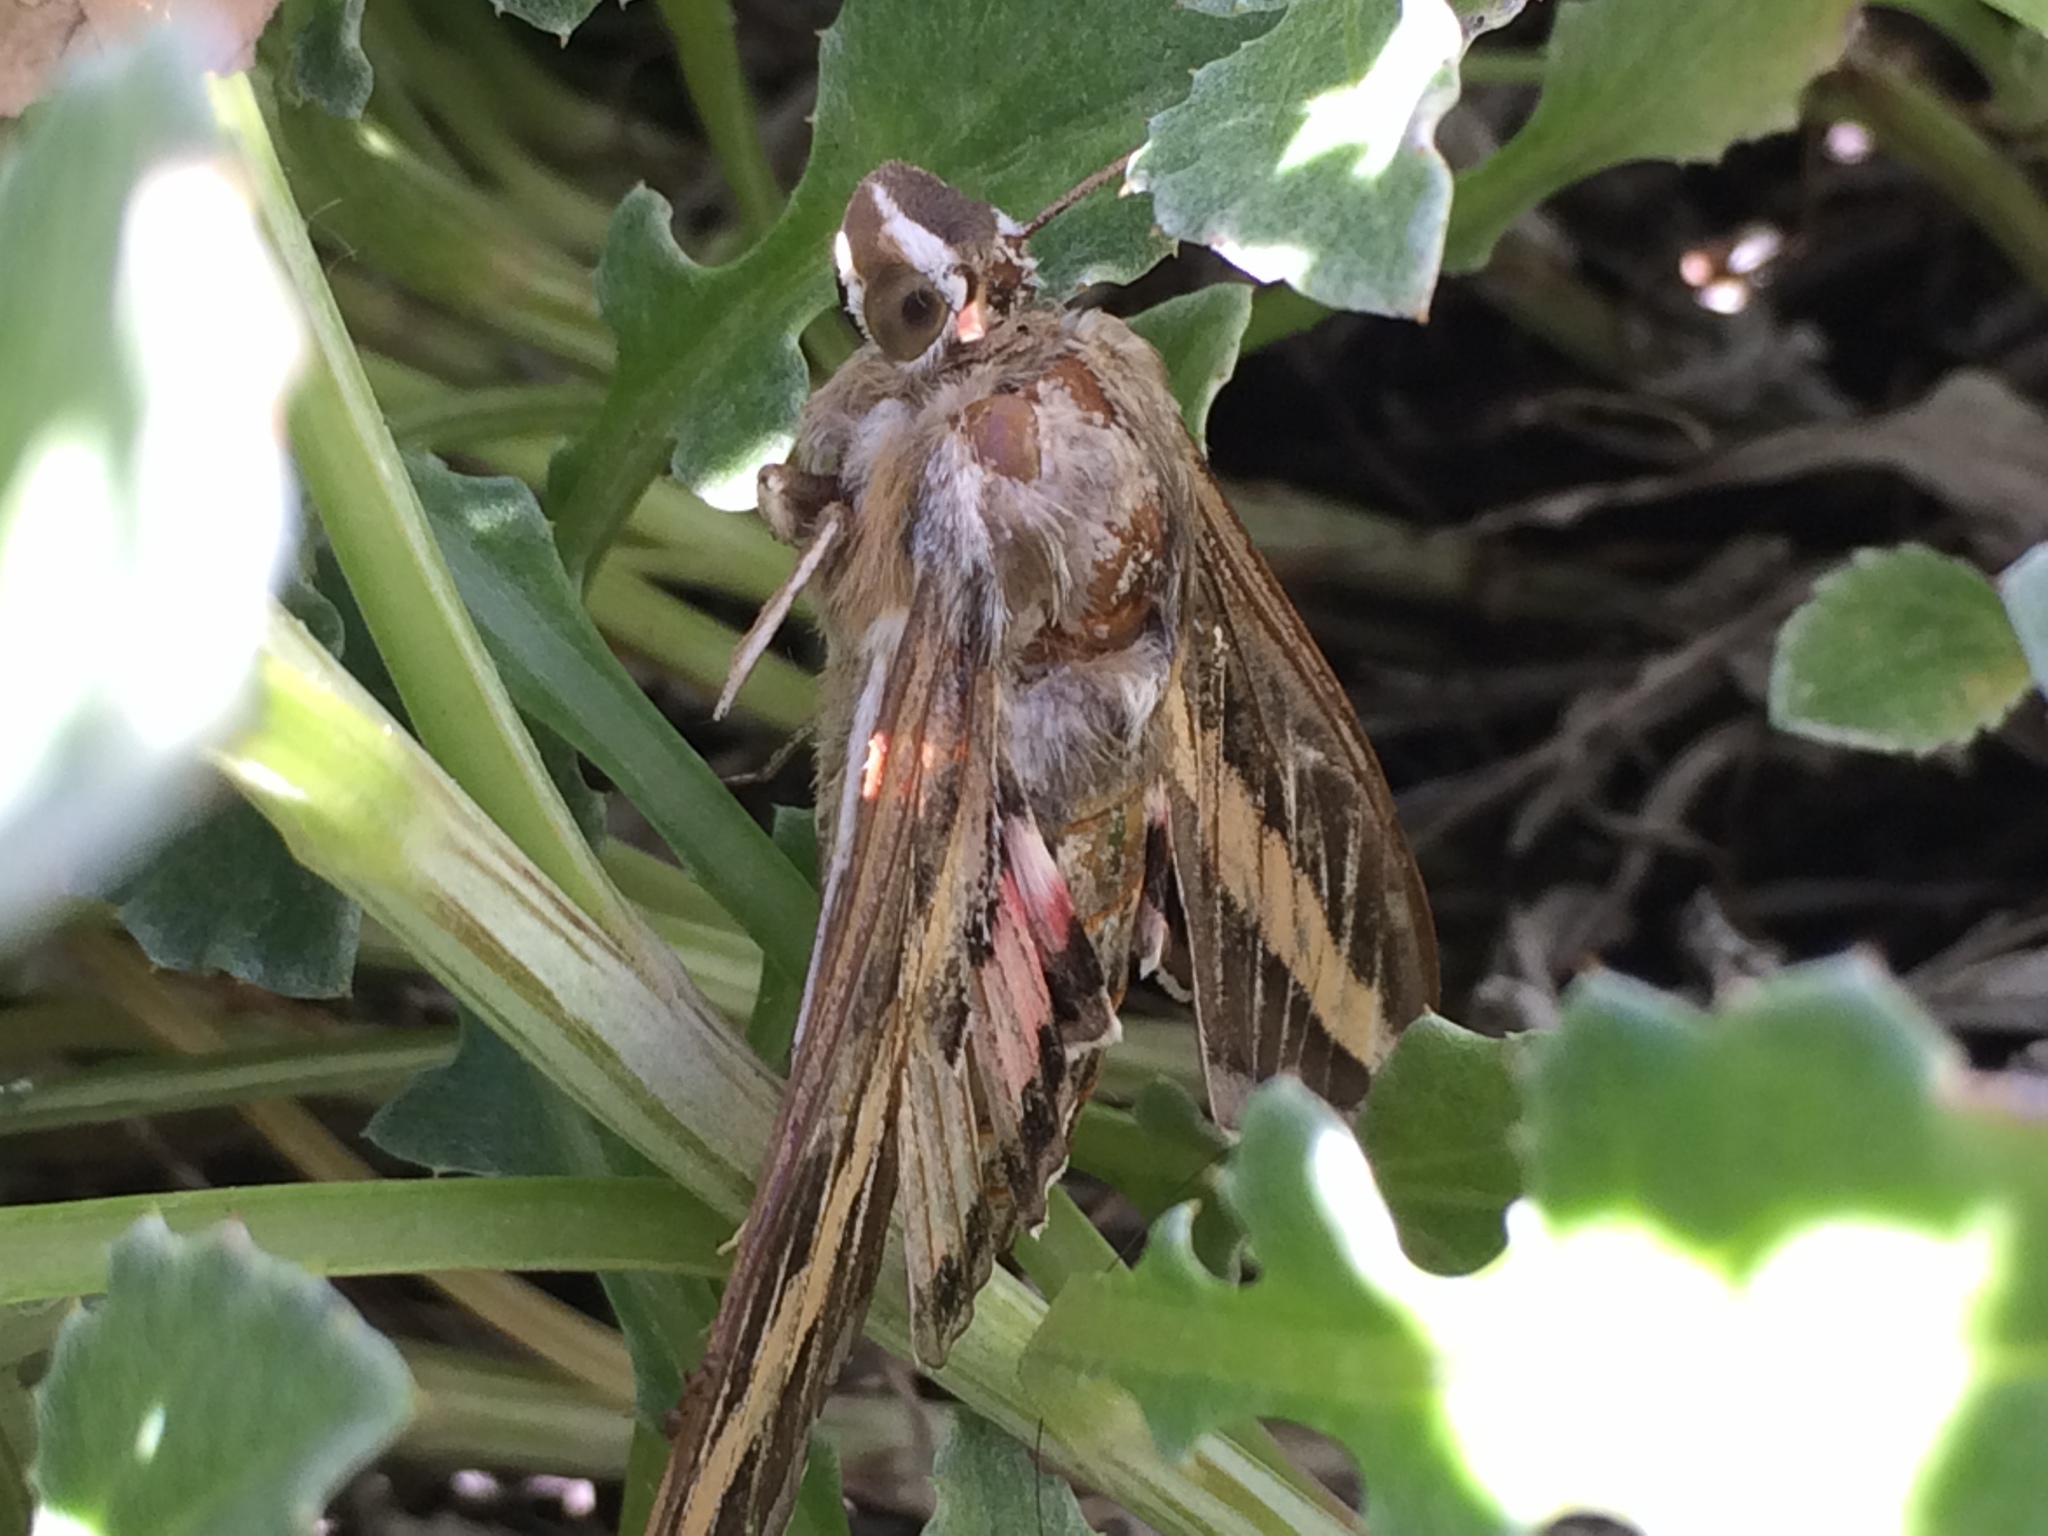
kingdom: Animalia
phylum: Arthropoda
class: Insecta
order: Lepidoptera
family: Sphingidae
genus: Hyles
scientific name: Hyles lineata
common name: White-lined sphinx
